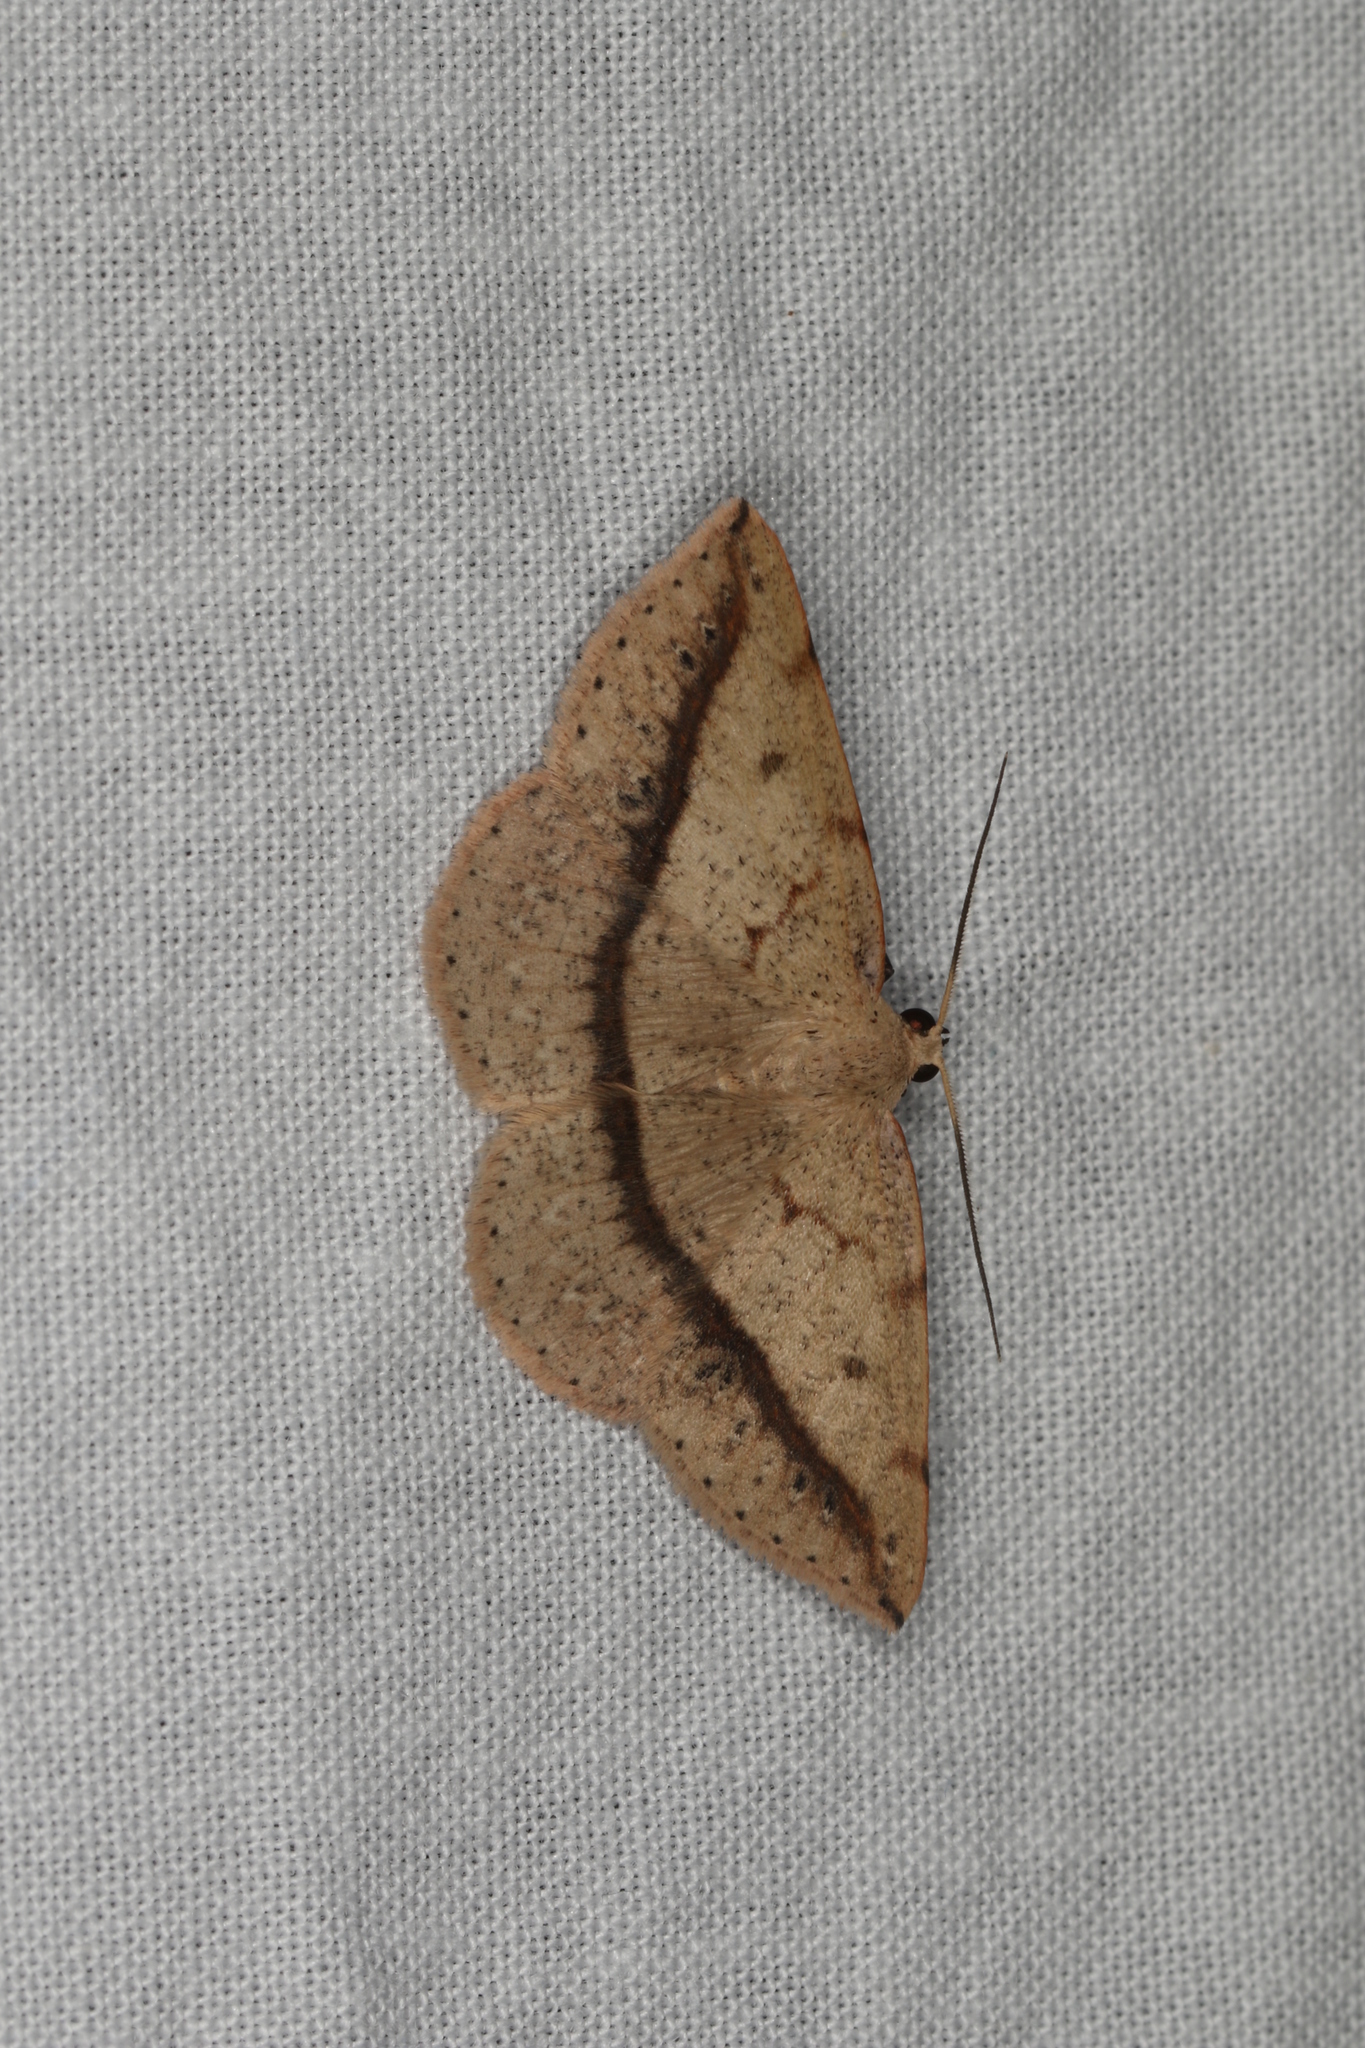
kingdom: Animalia
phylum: Arthropoda
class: Insecta
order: Lepidoptera
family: Geometridae
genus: Taxeotis
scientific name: Taxeotis epigaea
